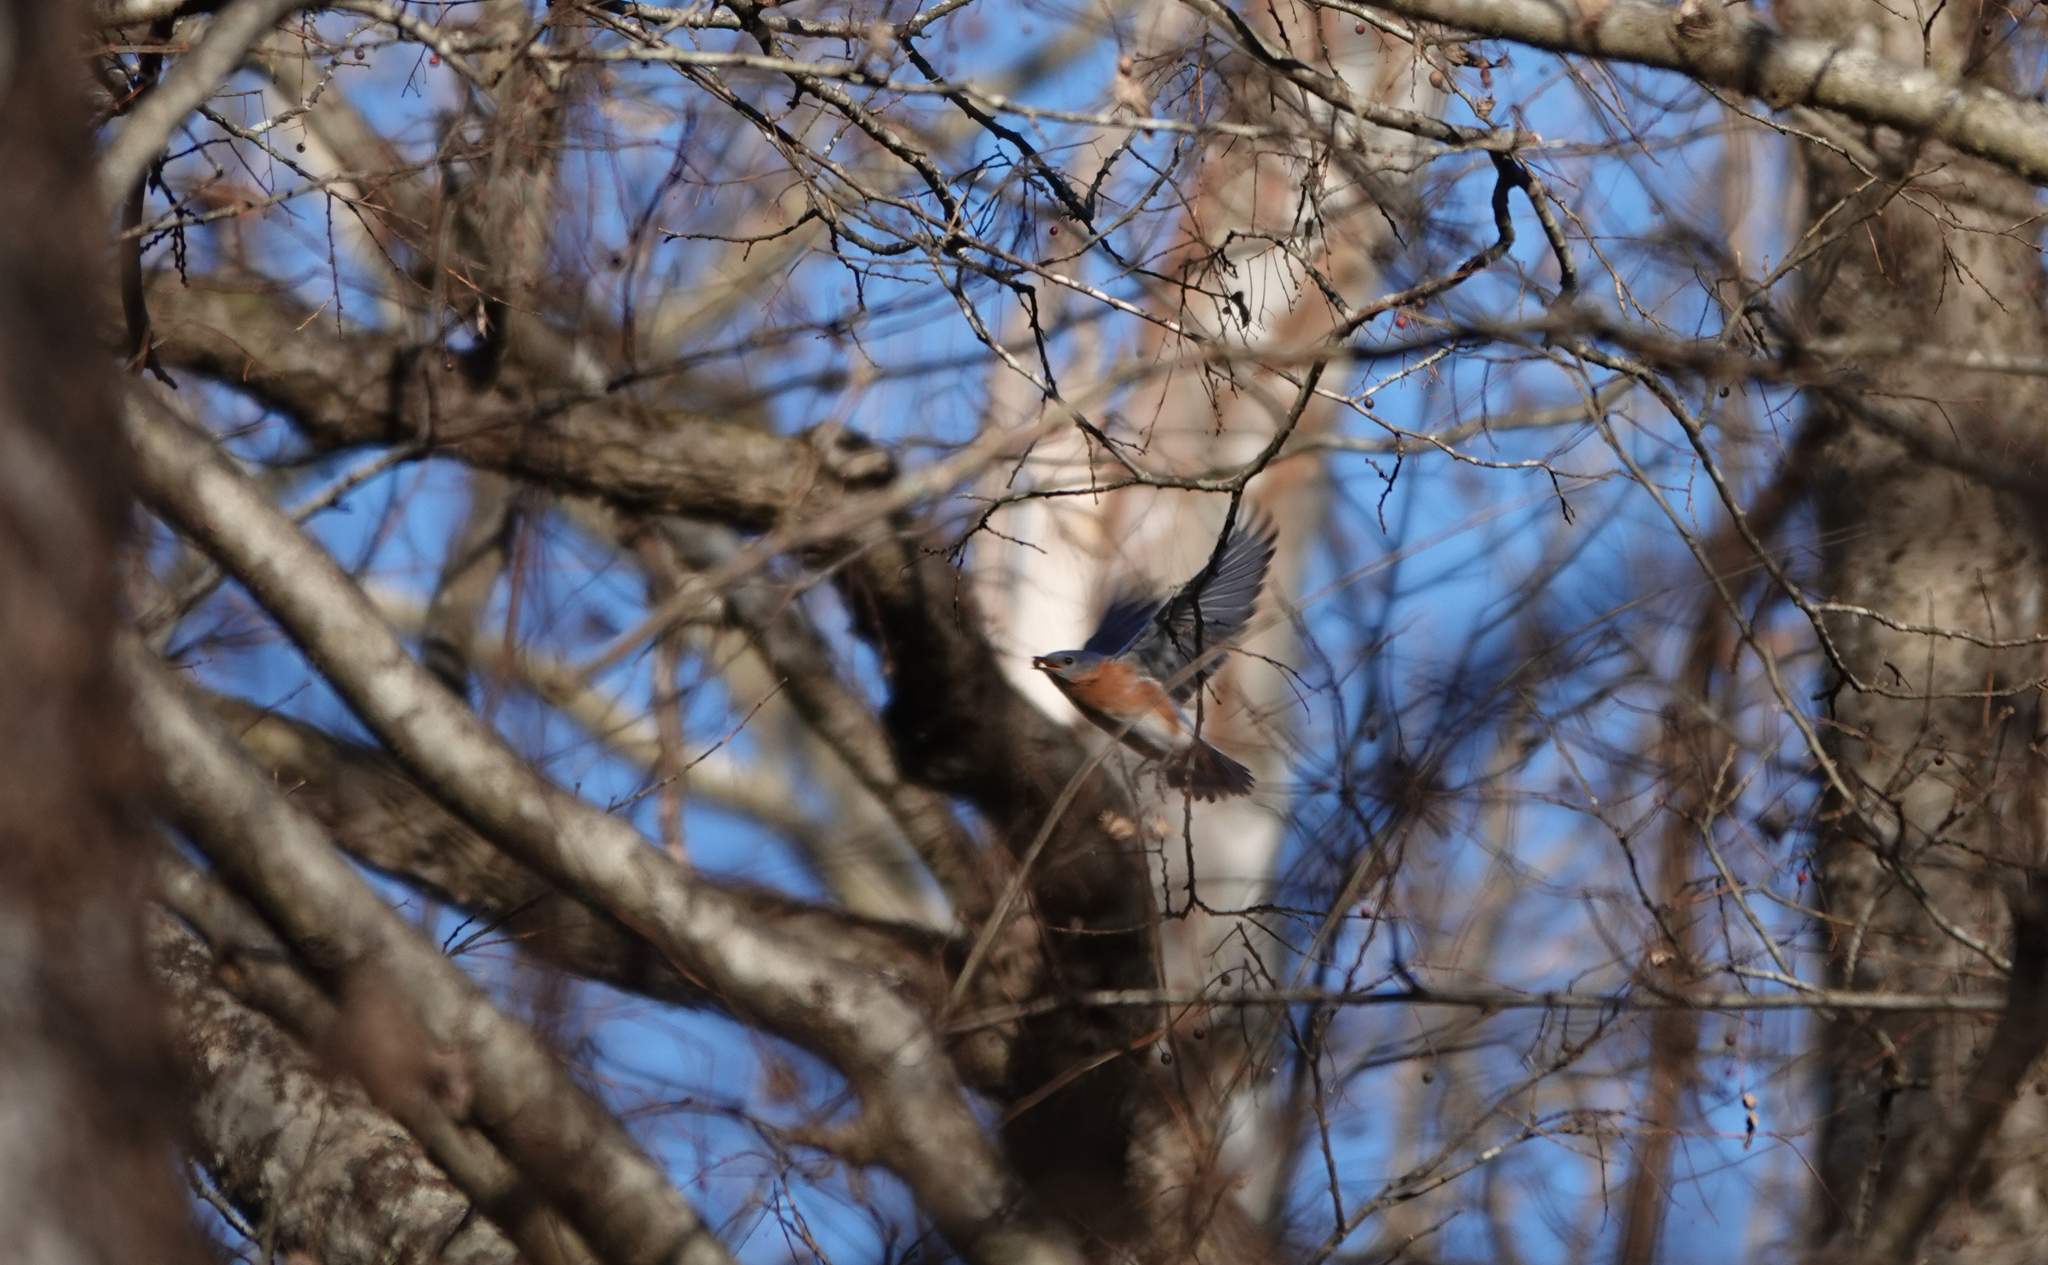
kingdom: Animalia
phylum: Chordata
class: Aves
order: Passeriformes
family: Turdidae
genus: Sialia
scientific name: Sialia sialis
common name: Eastern bluebird
